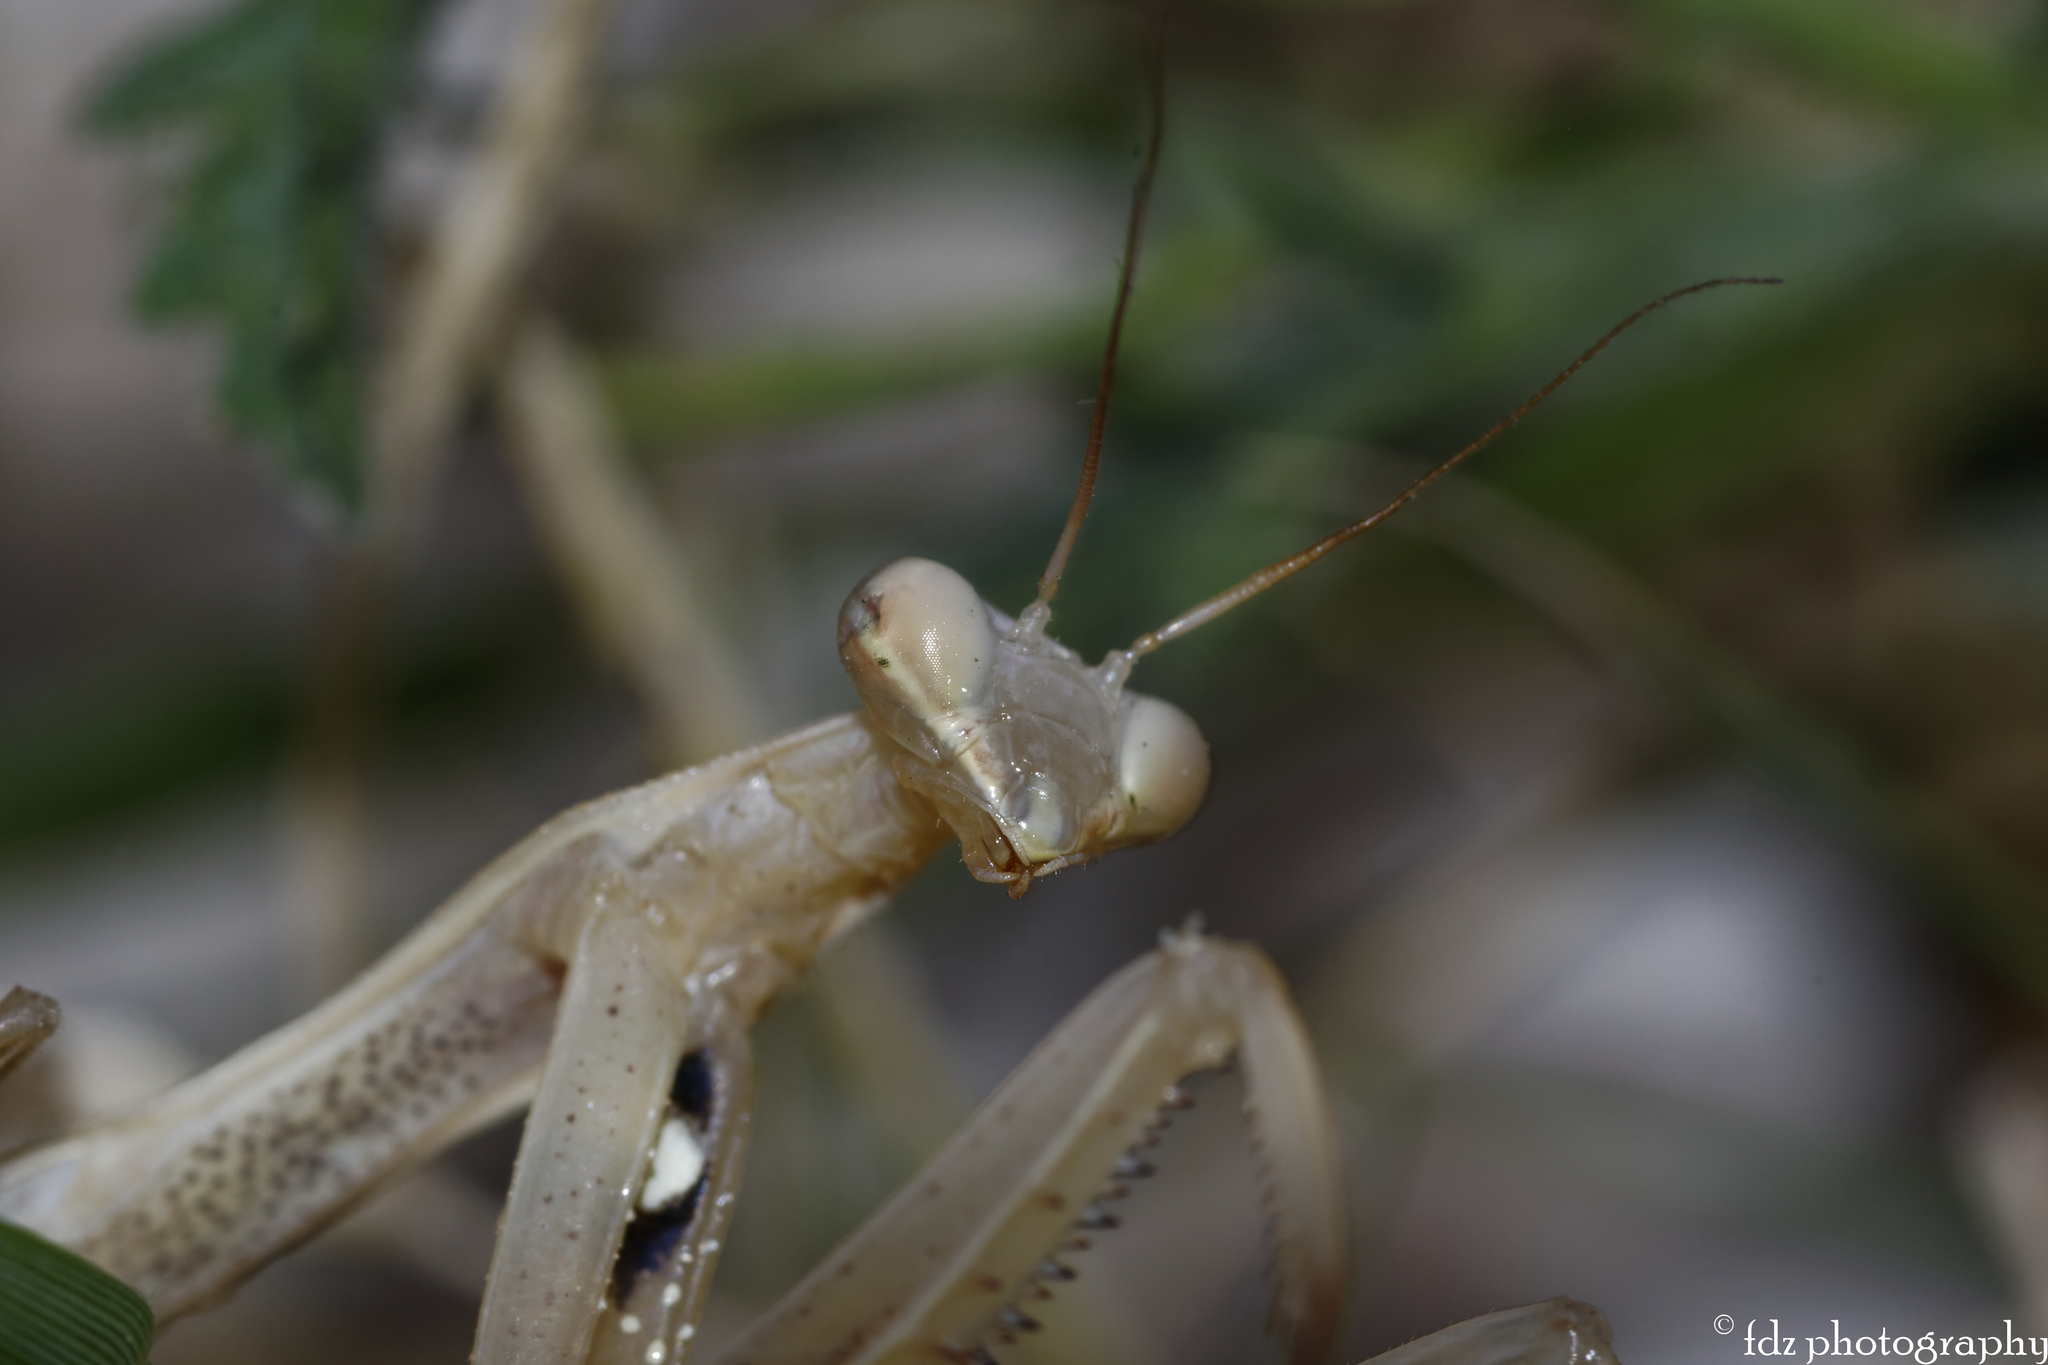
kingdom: Animalia
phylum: Arthropoda
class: Insecta
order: Mantodea
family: Mantidae
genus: Mantis
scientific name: Mantis religiosa
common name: Praying mantis
